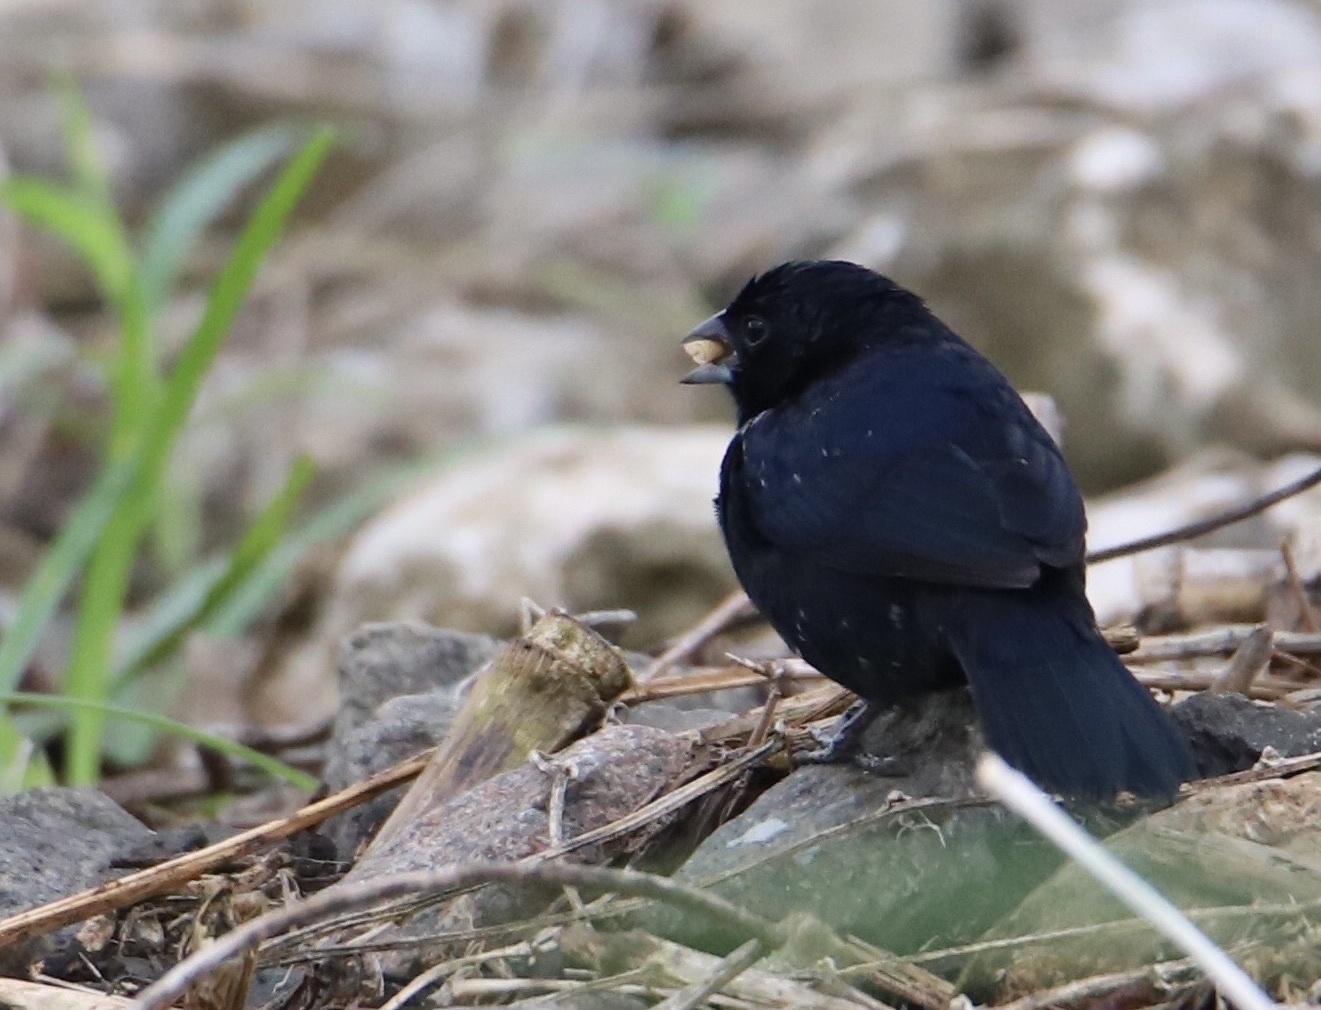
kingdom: Animalia
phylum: Chordata
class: Aves
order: Passeriformes
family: Thraupidae
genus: Volatinia
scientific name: Volatinia jacarina
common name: Blue-black grassquit
